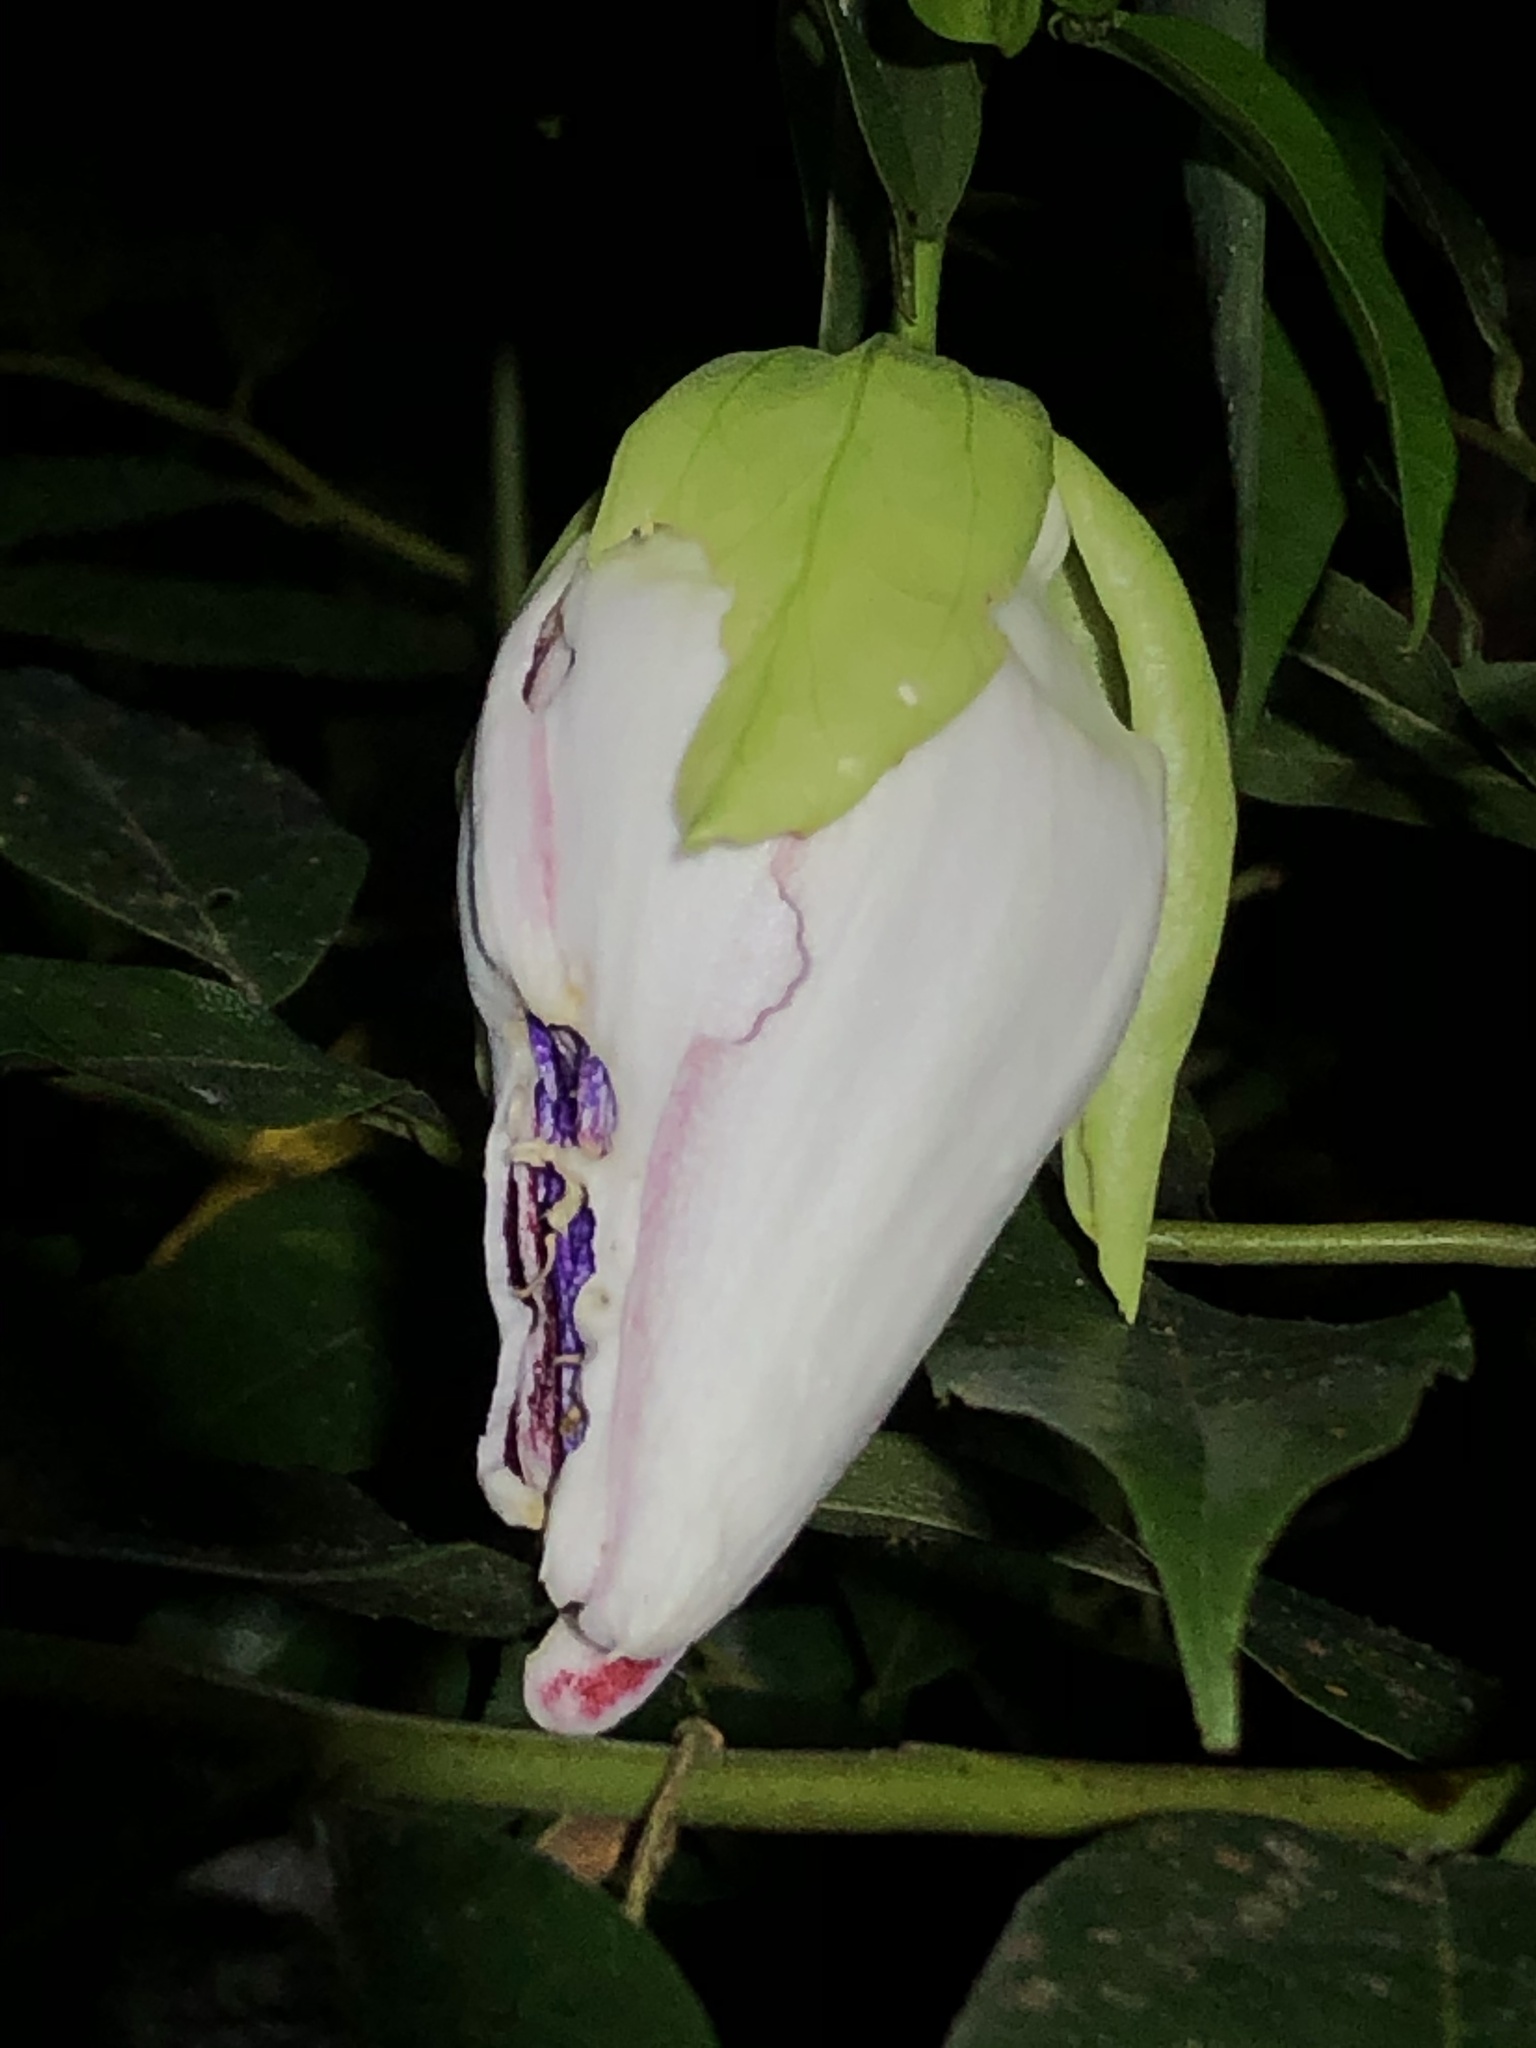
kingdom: Plantae
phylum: Tracheophyta
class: Magnoliopsida
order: Malpighiales
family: Passifloraceae
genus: Passiflora
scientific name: Passiflora venusta
